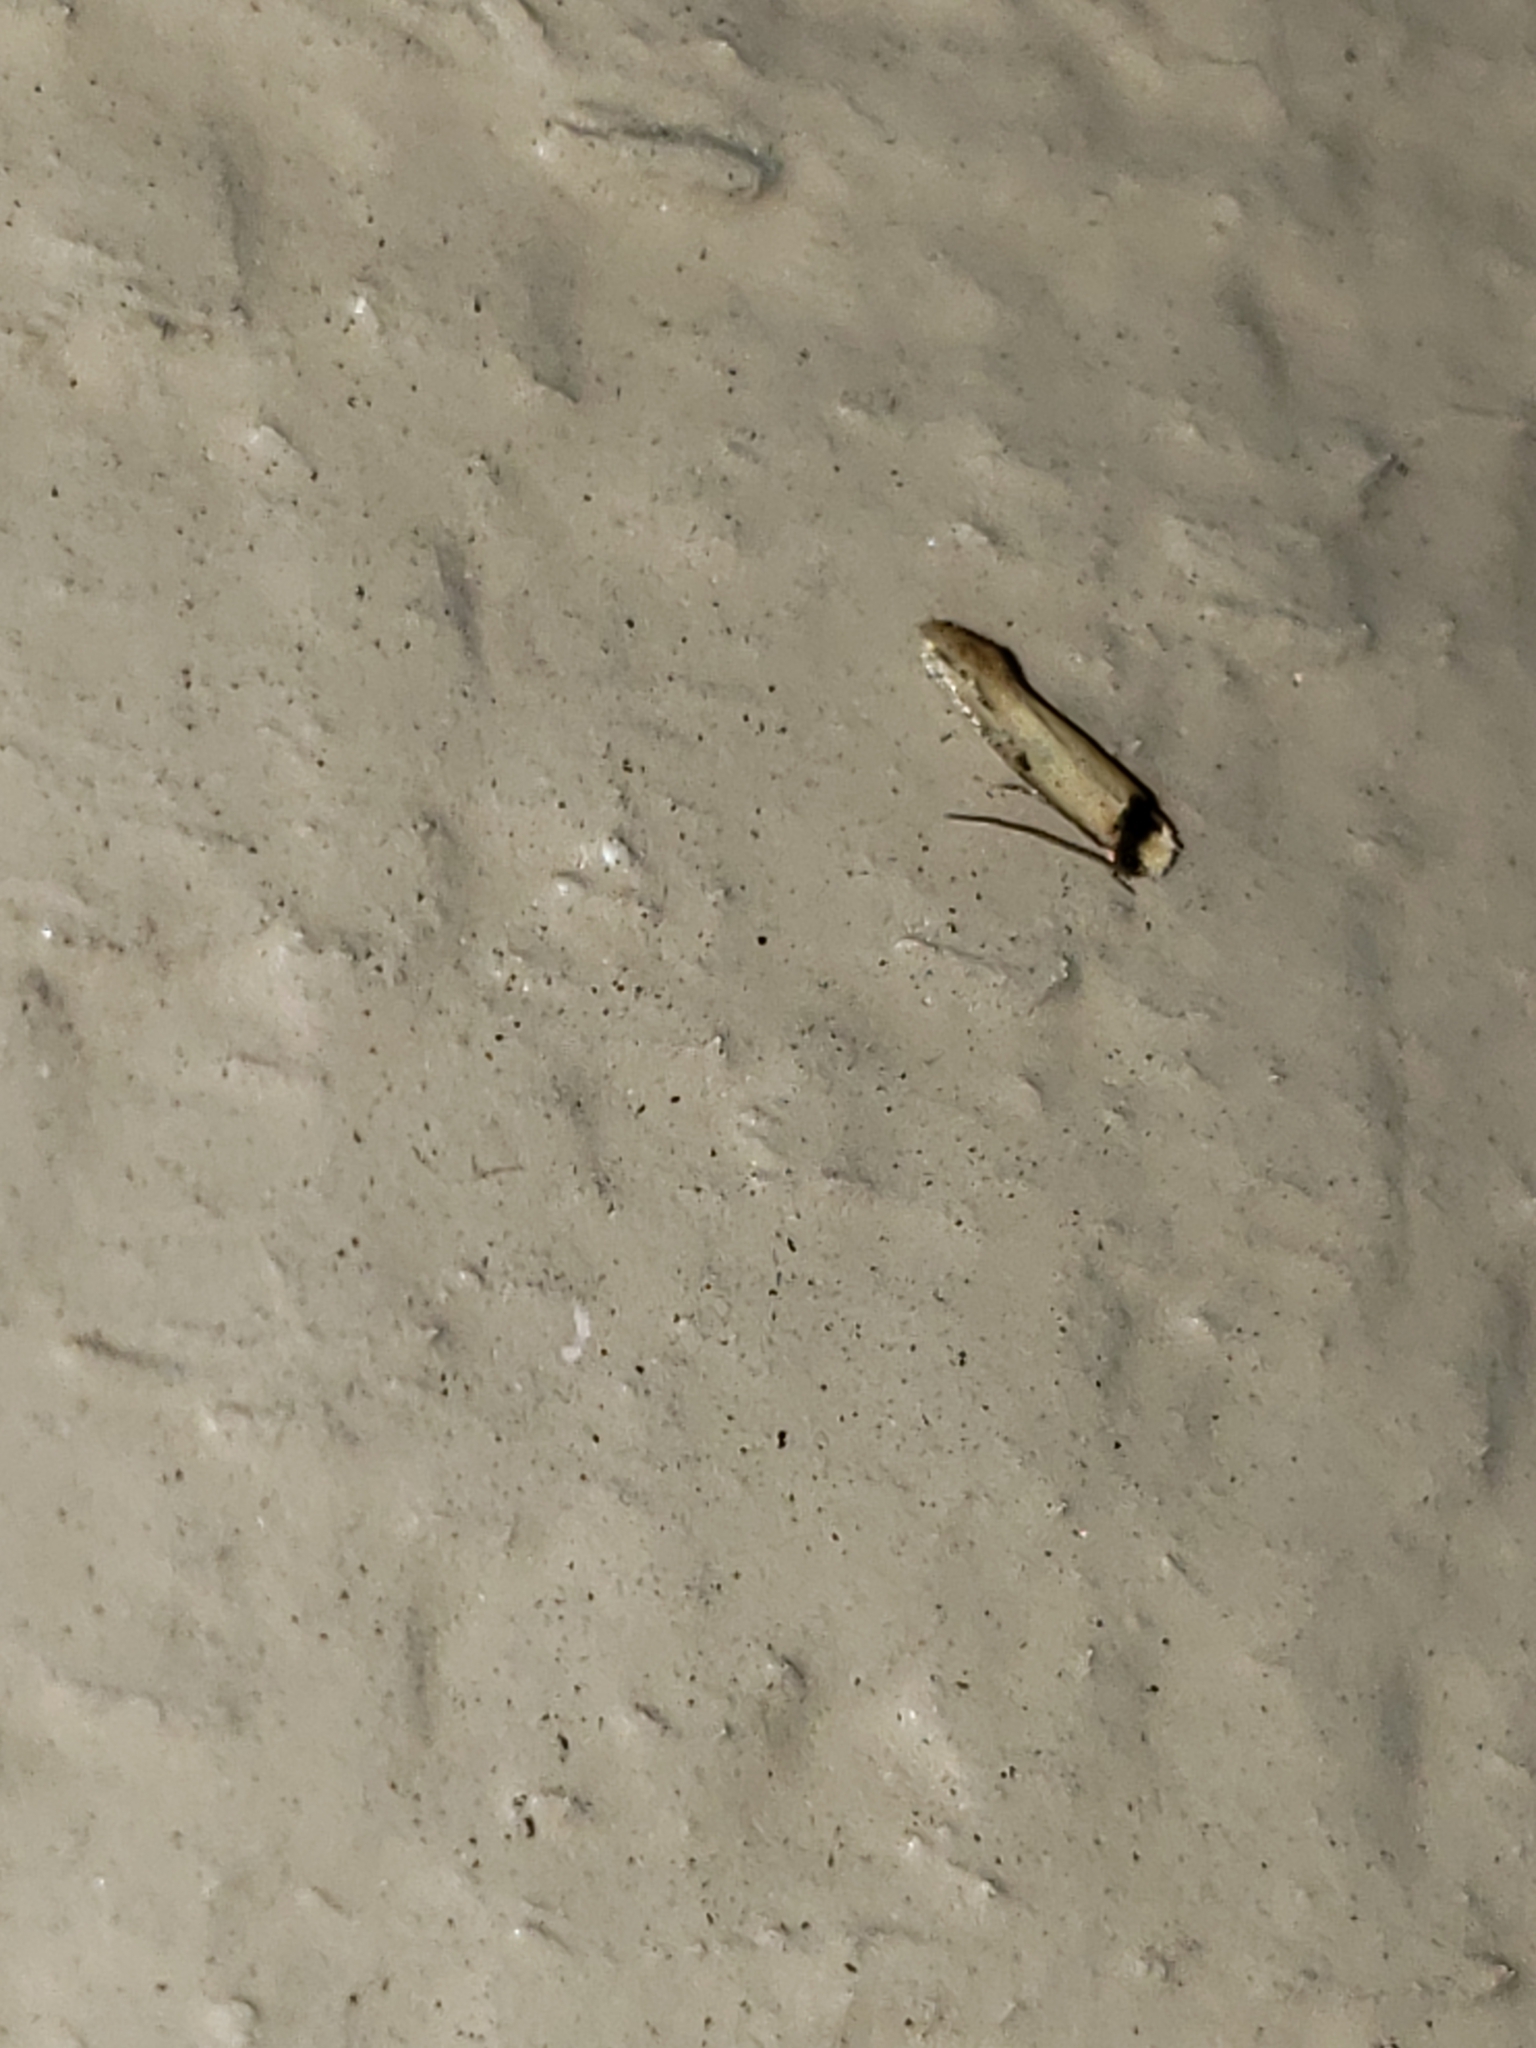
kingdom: Animalia
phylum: Arthropoda
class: Insecta
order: Lepidoptera
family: Meessiidae
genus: Homostinea
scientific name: Homostinea curviliniella
